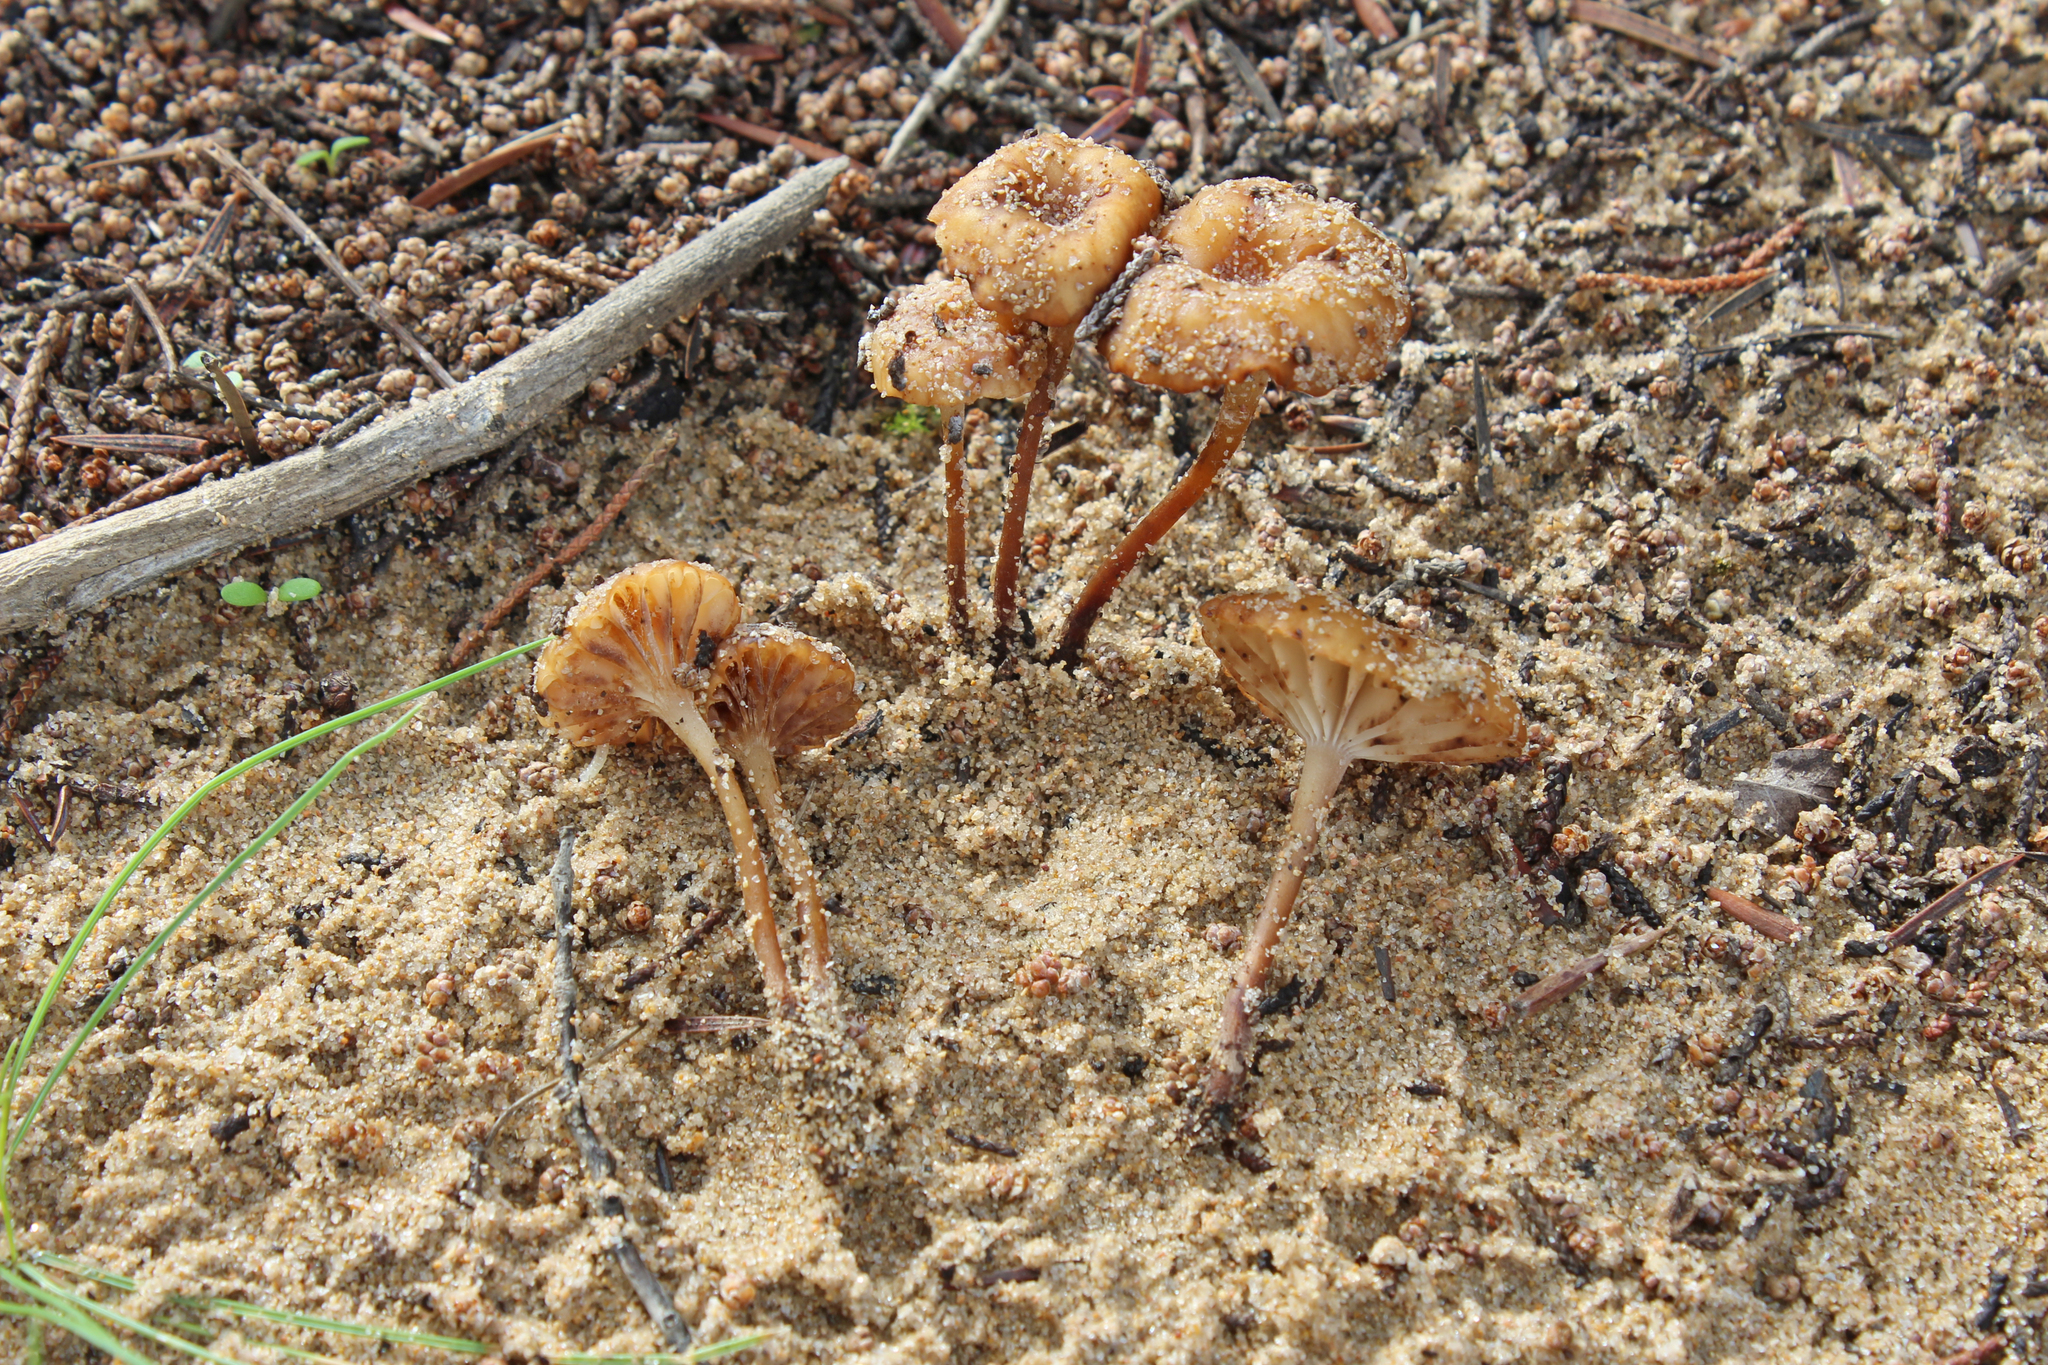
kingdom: Fungi
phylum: Basidiomycota
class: Agaricomycetes
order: Agaricales
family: Physalacriaceae
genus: Laccariopsis
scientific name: Laccariopsis mediterranea
